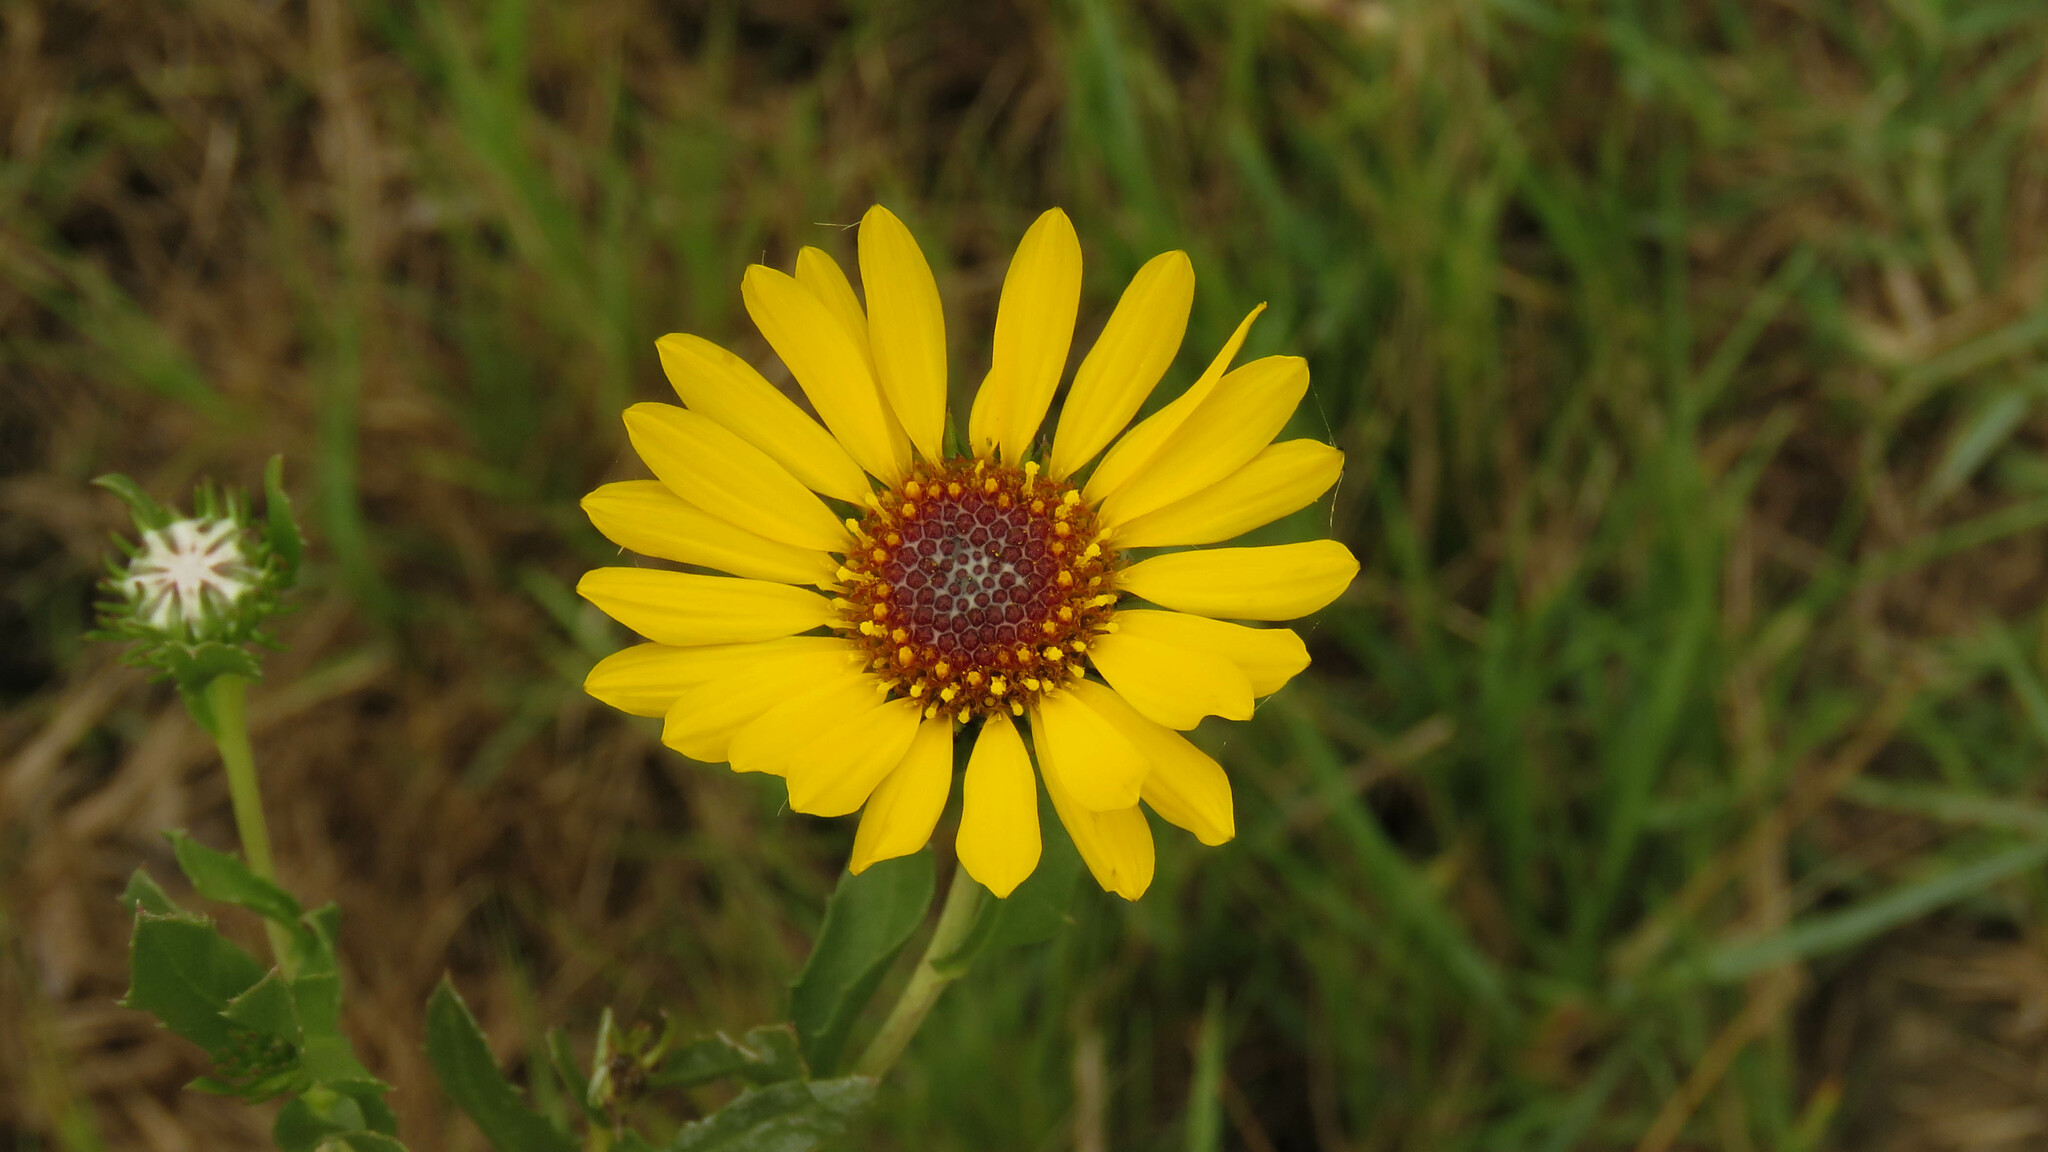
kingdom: Plantae
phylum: Tracheophyta
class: Magnoliopsida
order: Asterales
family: Asteraceae
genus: Grindelia
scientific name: Grindelia pulchella
